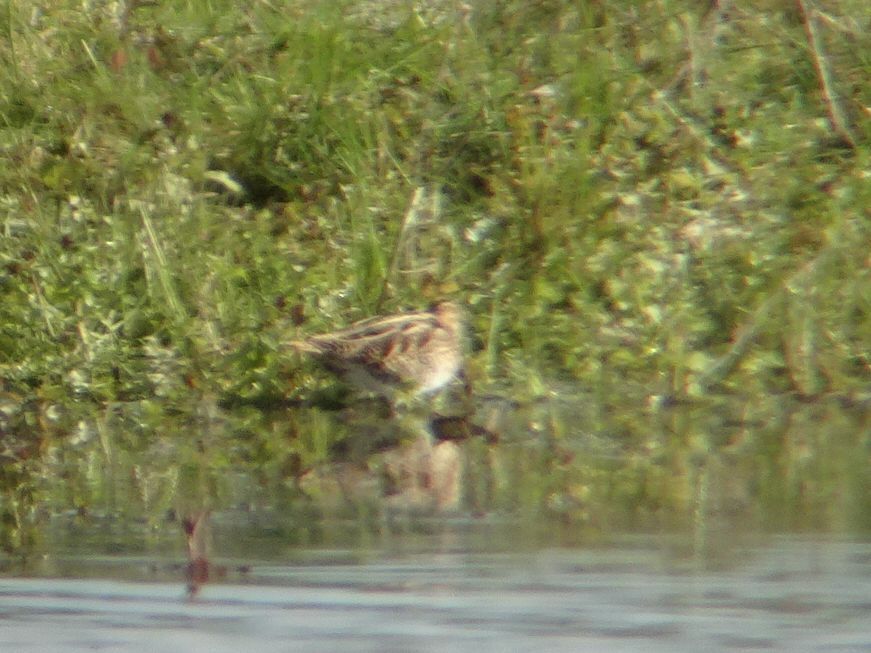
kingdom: Animalia
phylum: Chordata
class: Aves
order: Charadriiformes
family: Scolopacidae
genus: Gallinago
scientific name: Gallinago gallinago
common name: Common snipe
